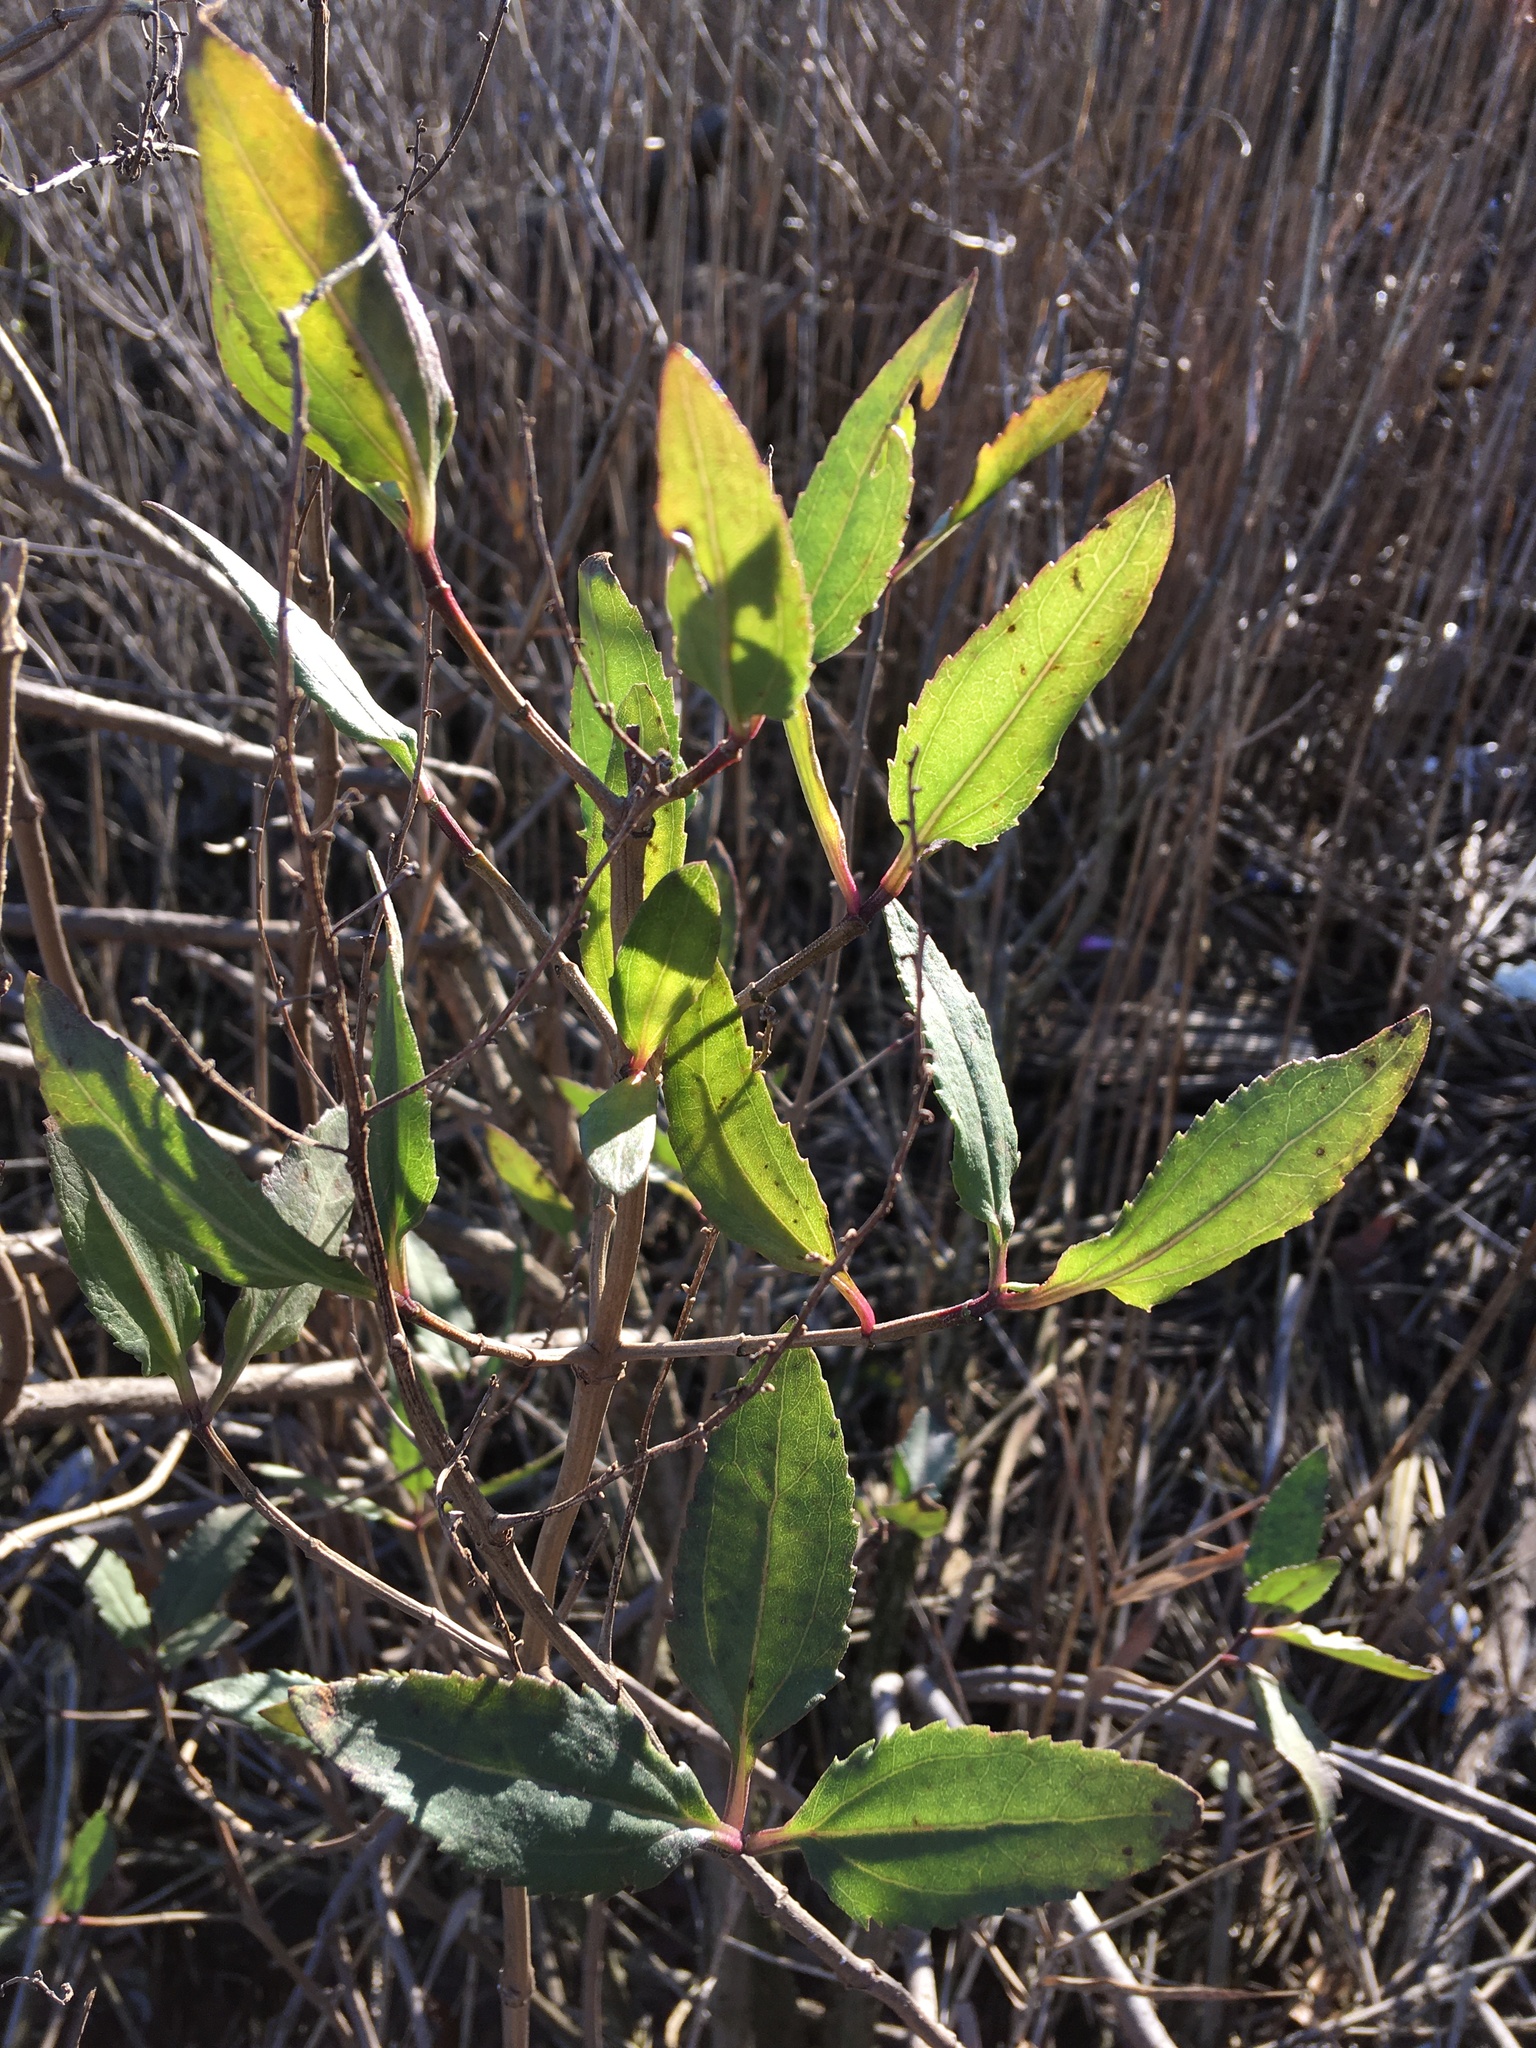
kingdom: Plantae
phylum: Tracheophyta
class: Magnoliopsida
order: Asterales
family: Asteraceae
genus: Iva
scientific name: Iva frutescens
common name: Big-leaved marsh-elder
